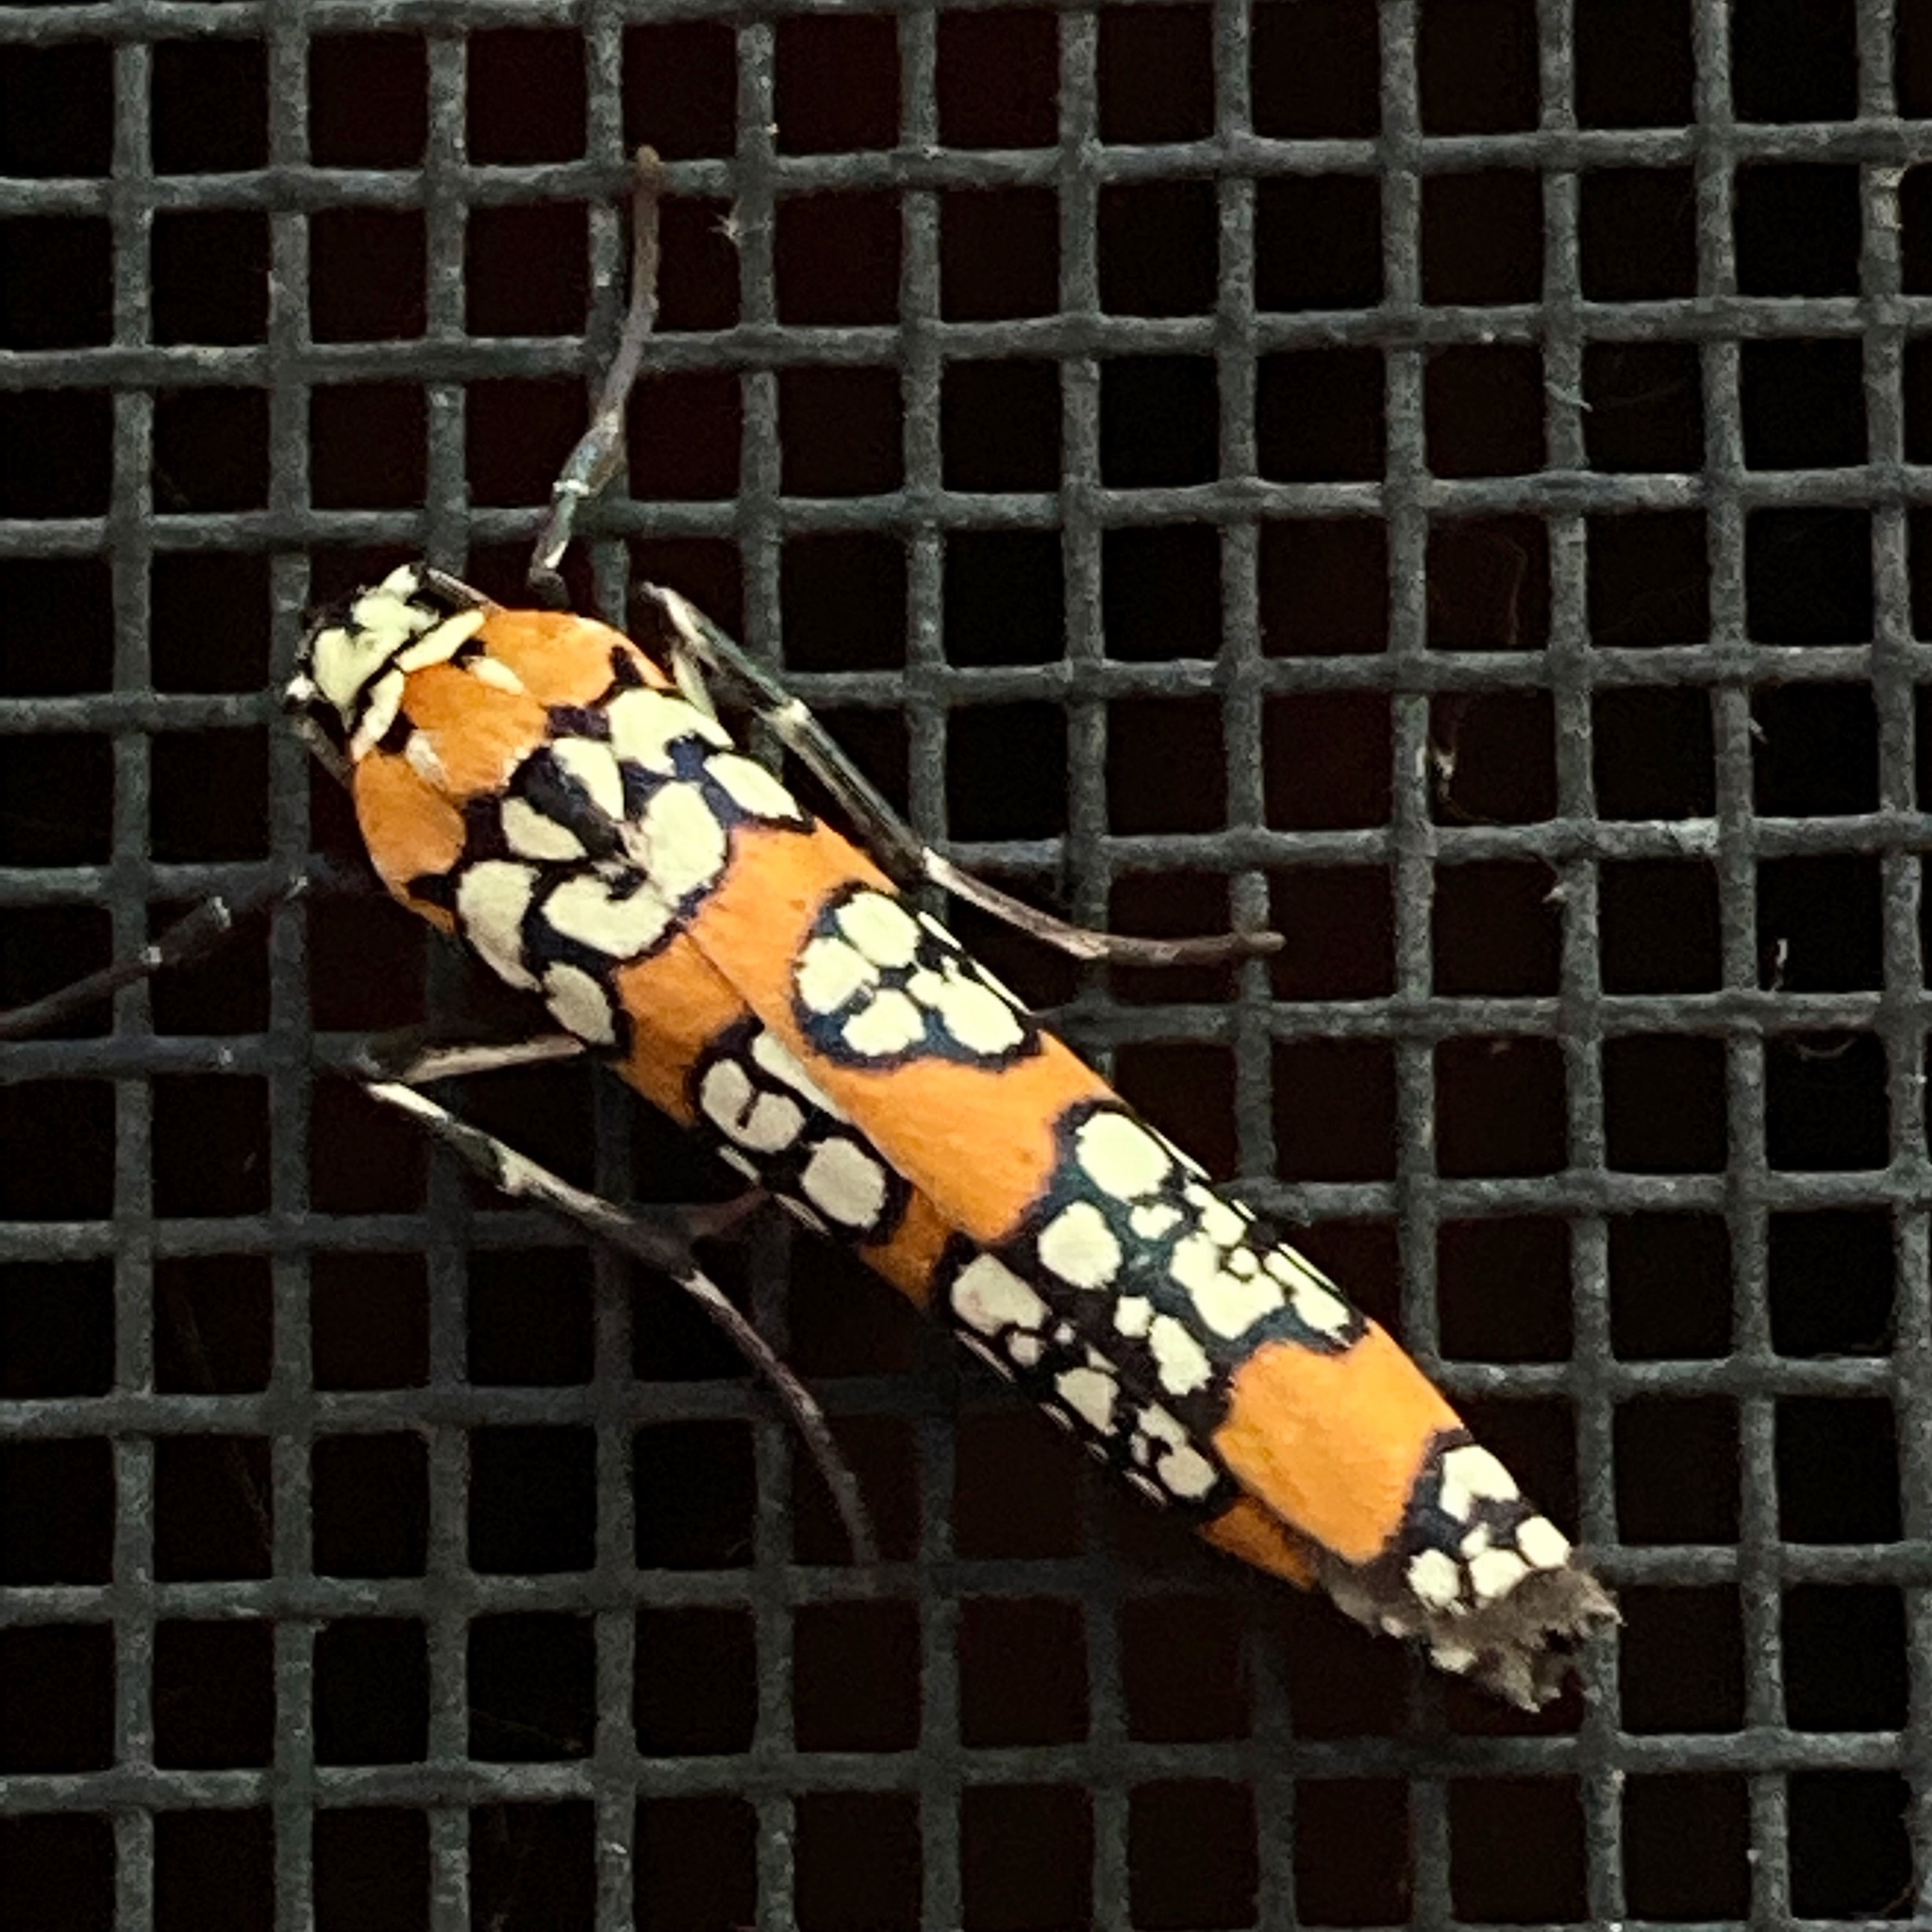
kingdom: Animalia
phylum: Arthropoda
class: Insecta
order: Lepidoptera
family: Attevidae
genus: Atteva
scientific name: Atteva punctella
